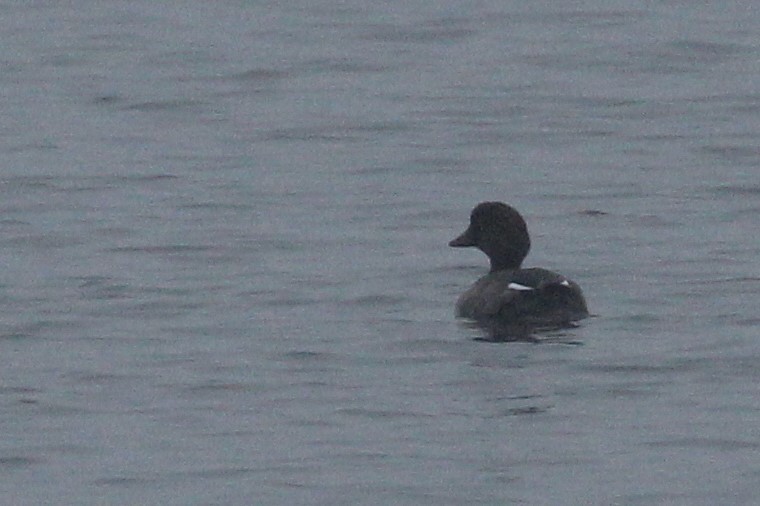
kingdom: Animalia
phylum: Chordata
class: Aves
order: Anseriformes
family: Anatidae
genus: Bucephala
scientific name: Bucephala clangula
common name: Common goldeneye
